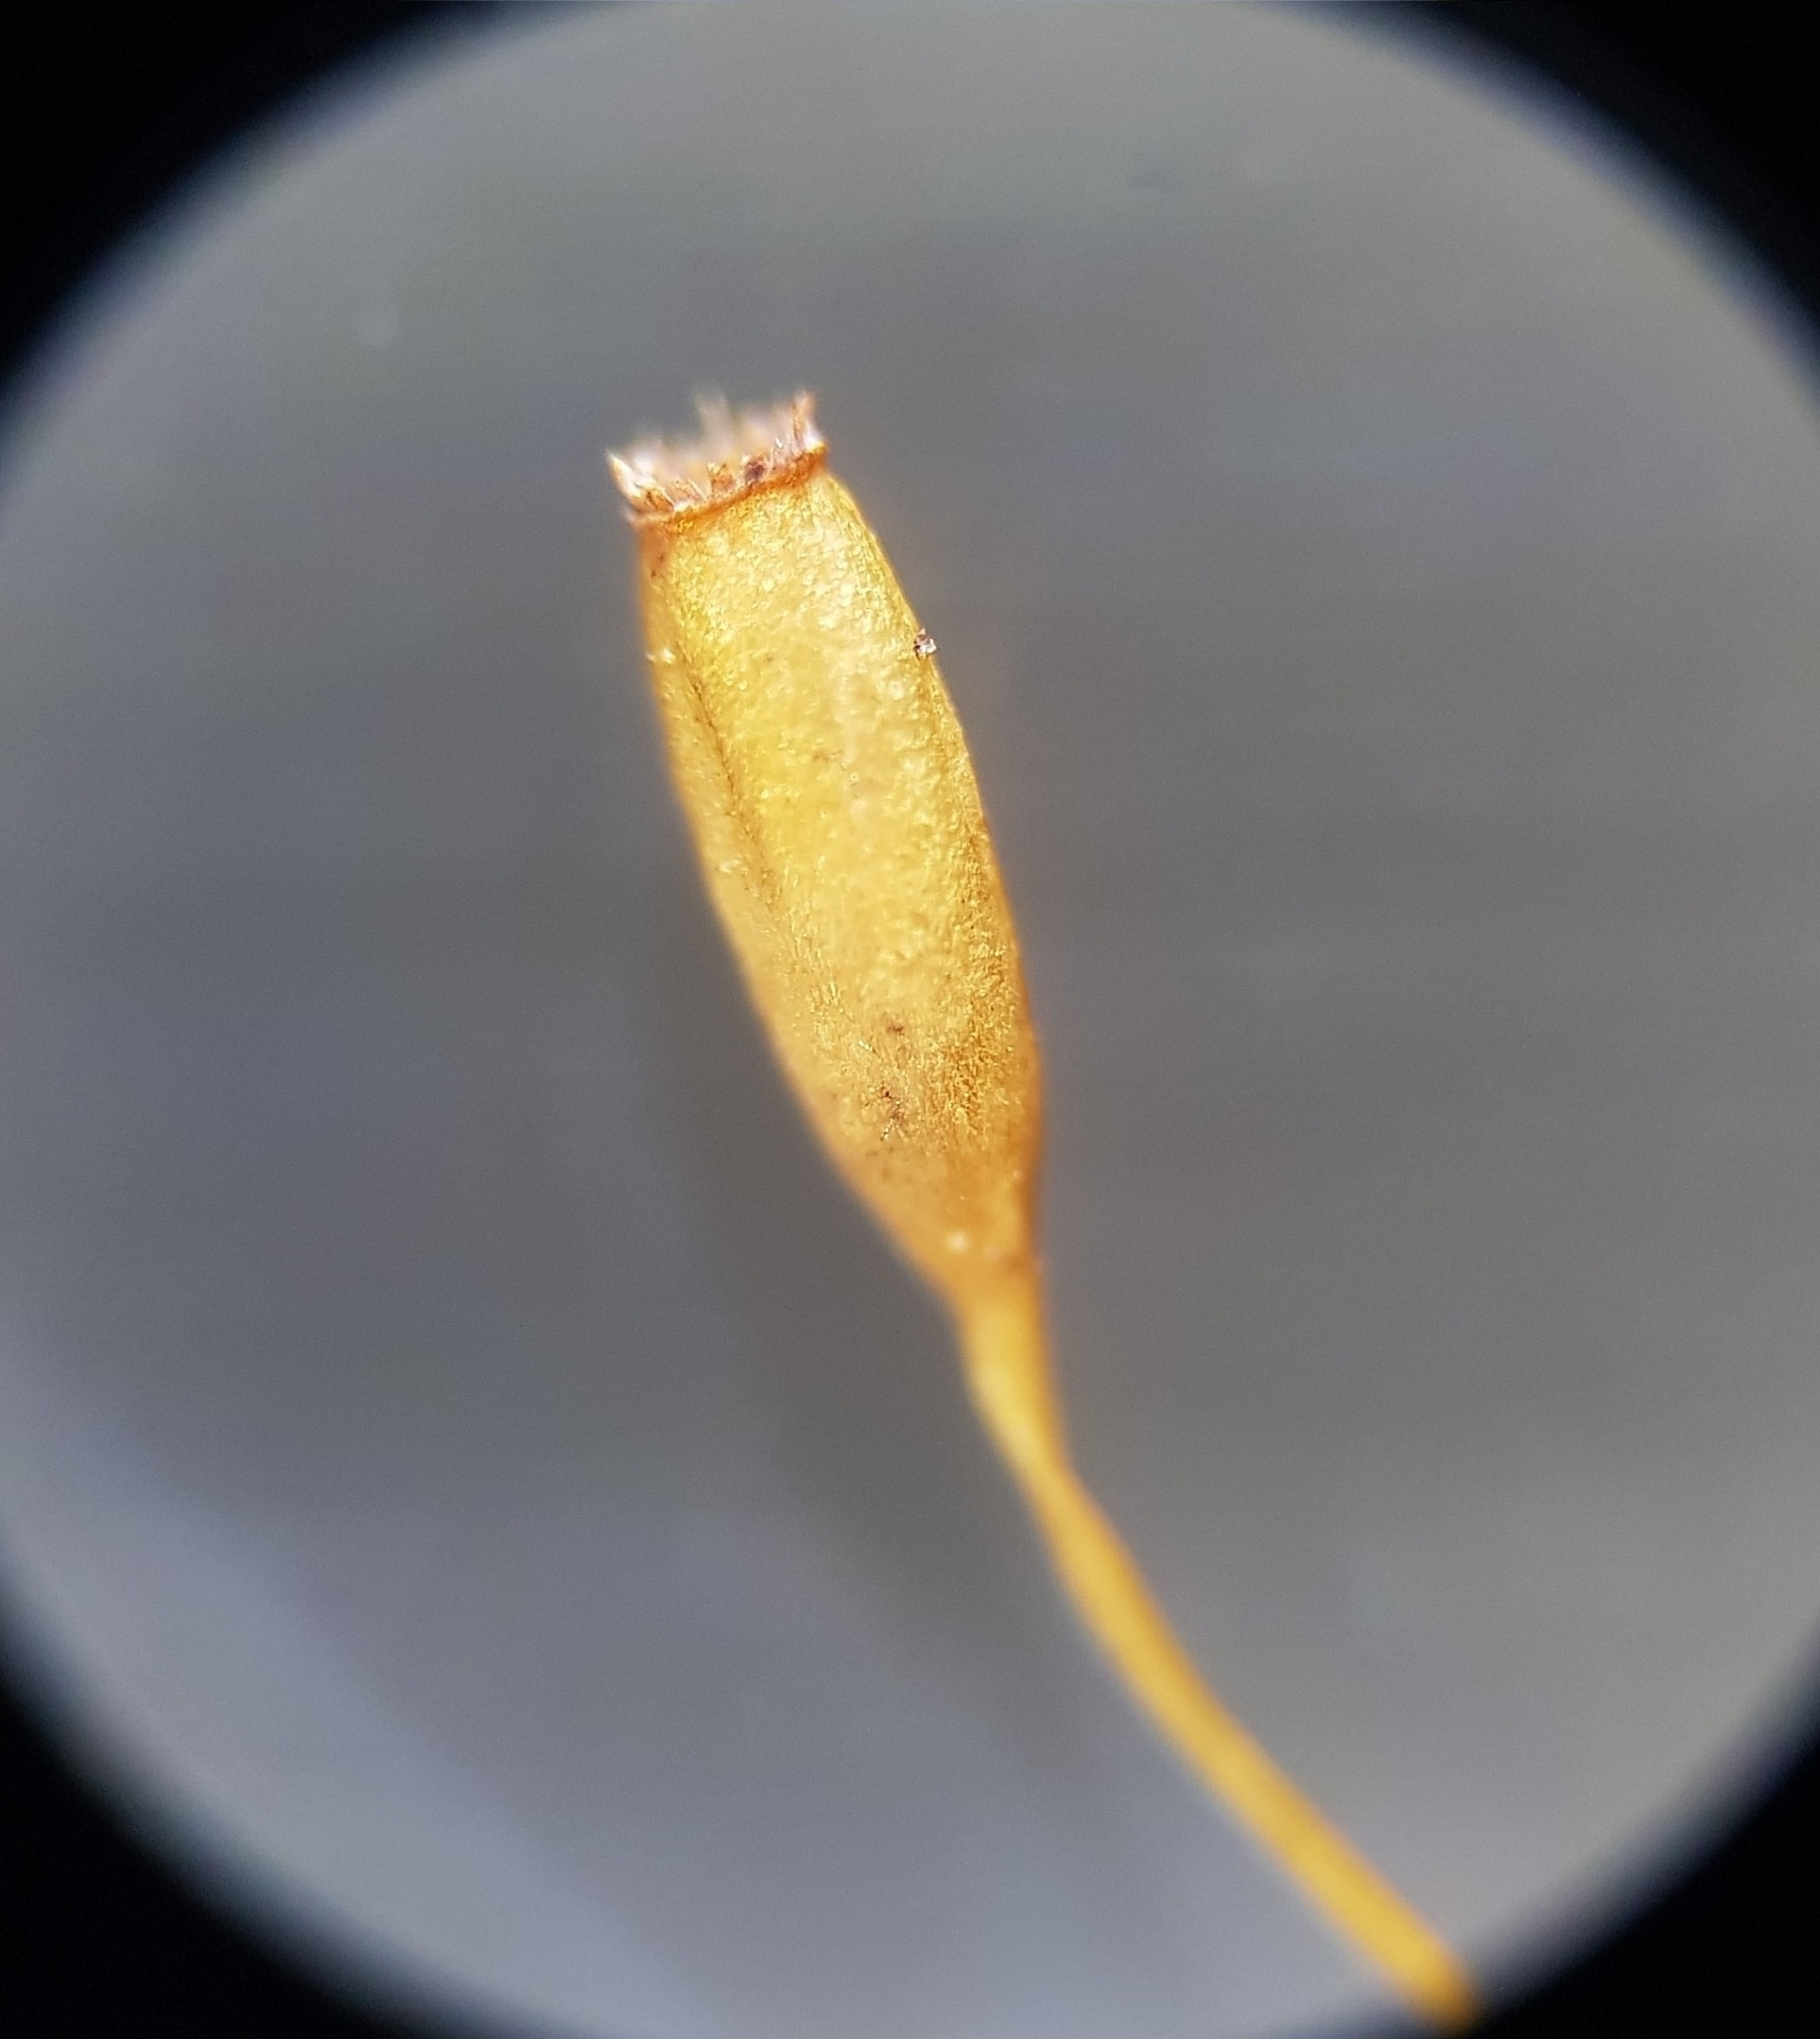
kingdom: Plantae
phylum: Bryophyta
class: Bryopsida
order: Grimmiales
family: Ptychomitriaceae
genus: Ptychomitrium
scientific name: Ptychomitrium polyphyllum
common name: Greater pincushion
